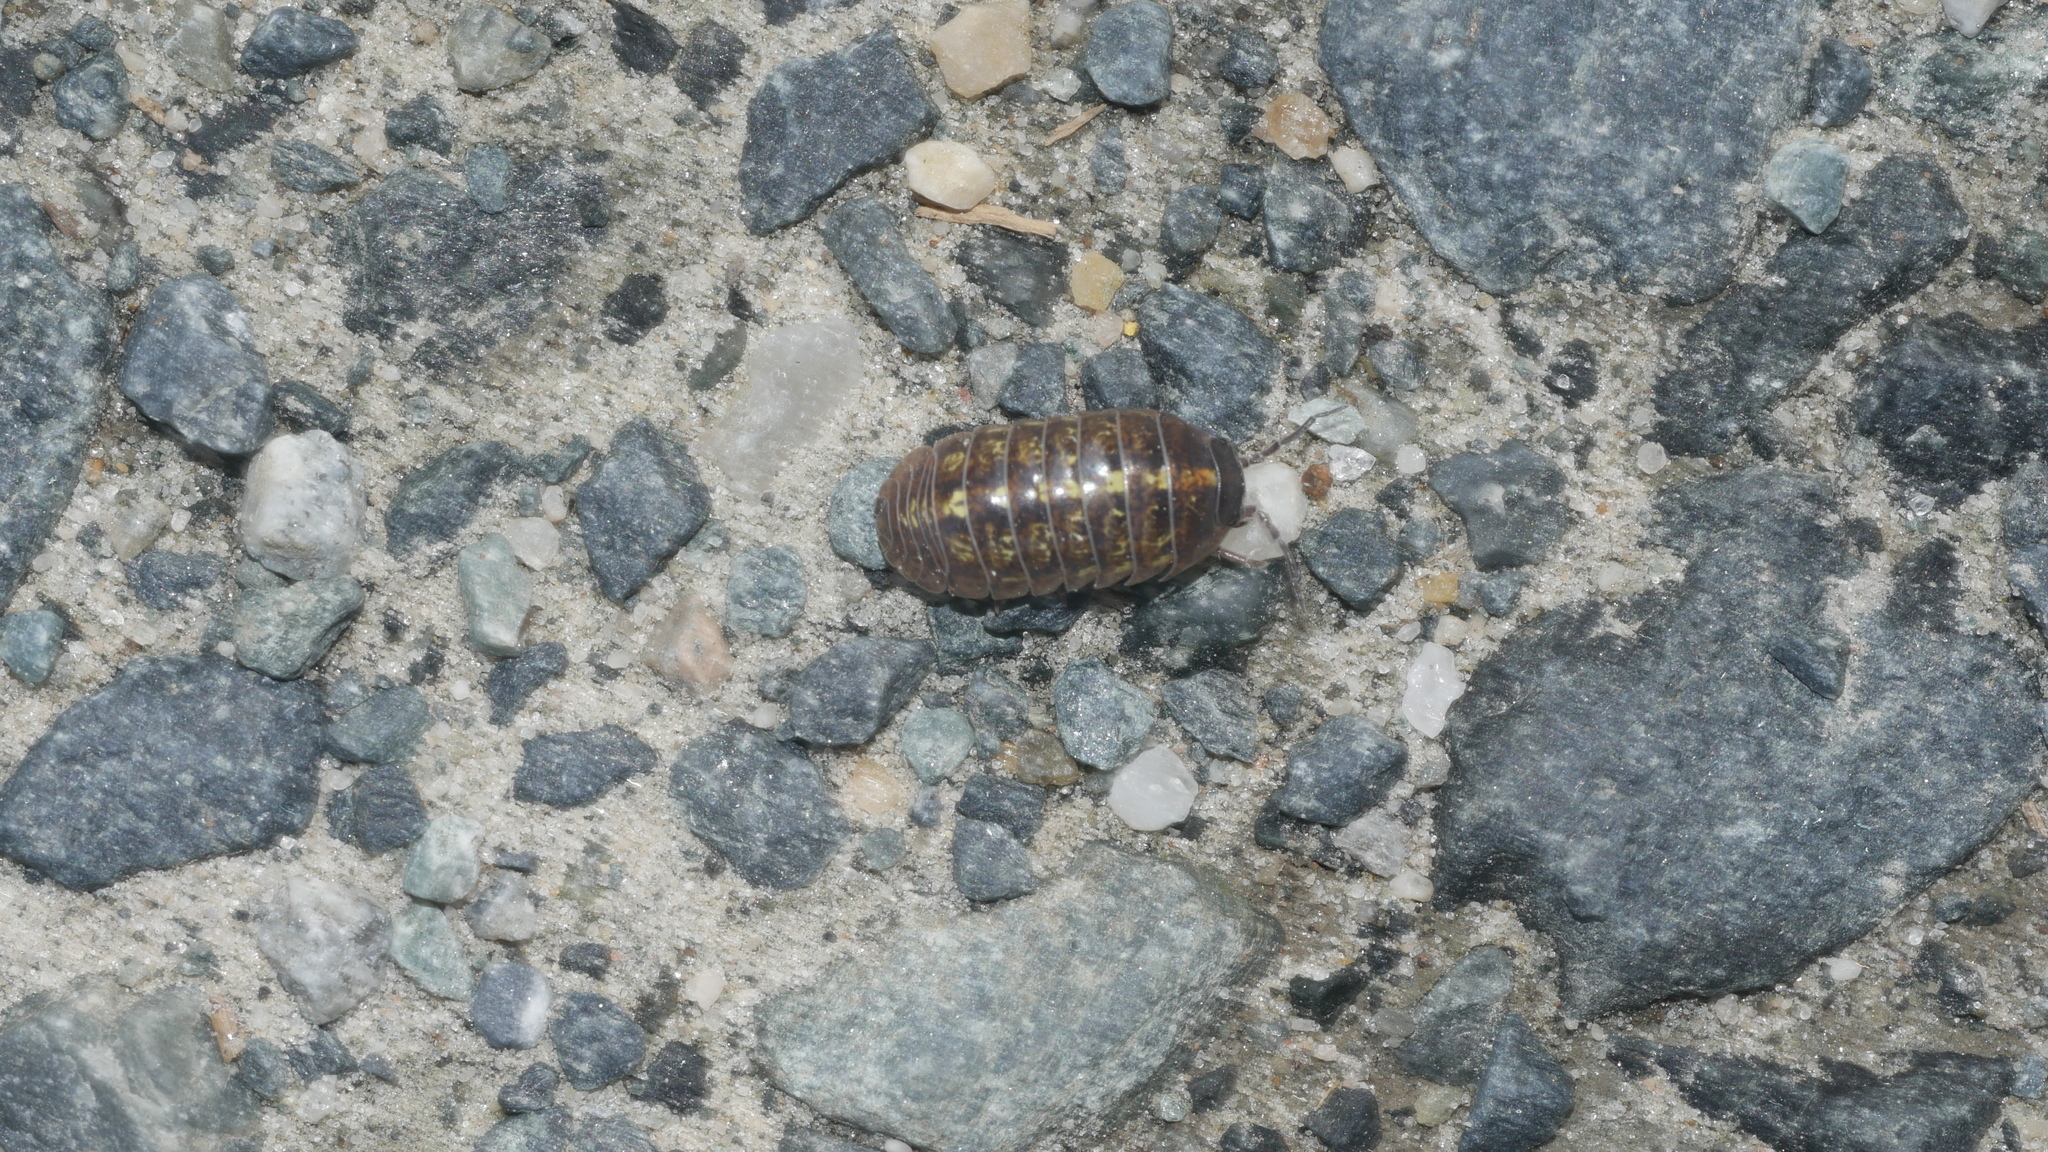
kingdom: Animalia
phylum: Arthropoda
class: Malacostraca
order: Isopoda
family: Armadillidiidae
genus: Armadillidium
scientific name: Armadillidium vulgare
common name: Common pill woodlouse
